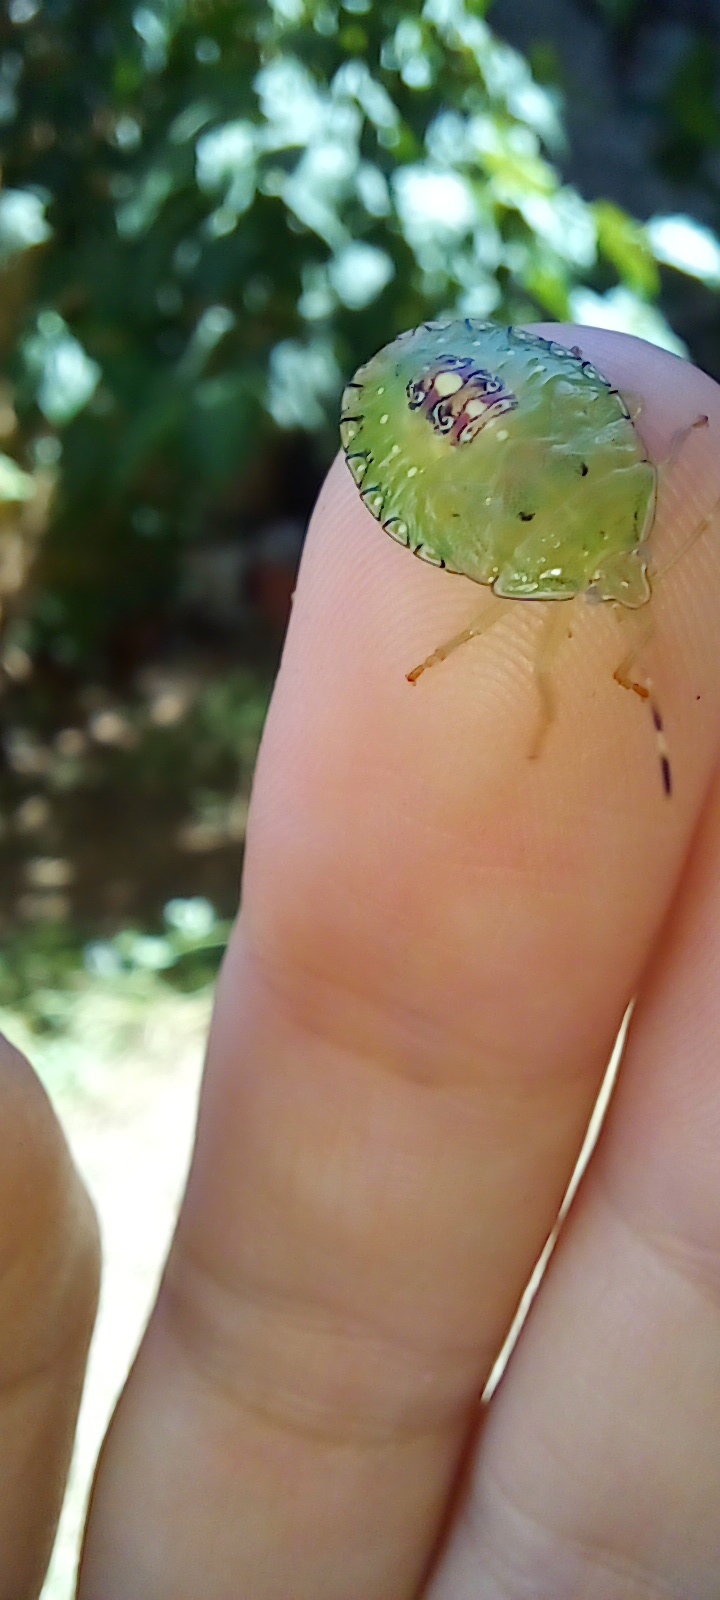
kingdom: Animalia
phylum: Arthropoda
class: Insecta
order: Hemiptera
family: Pentatomidae
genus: Edessa
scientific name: Edessa meditabunda
